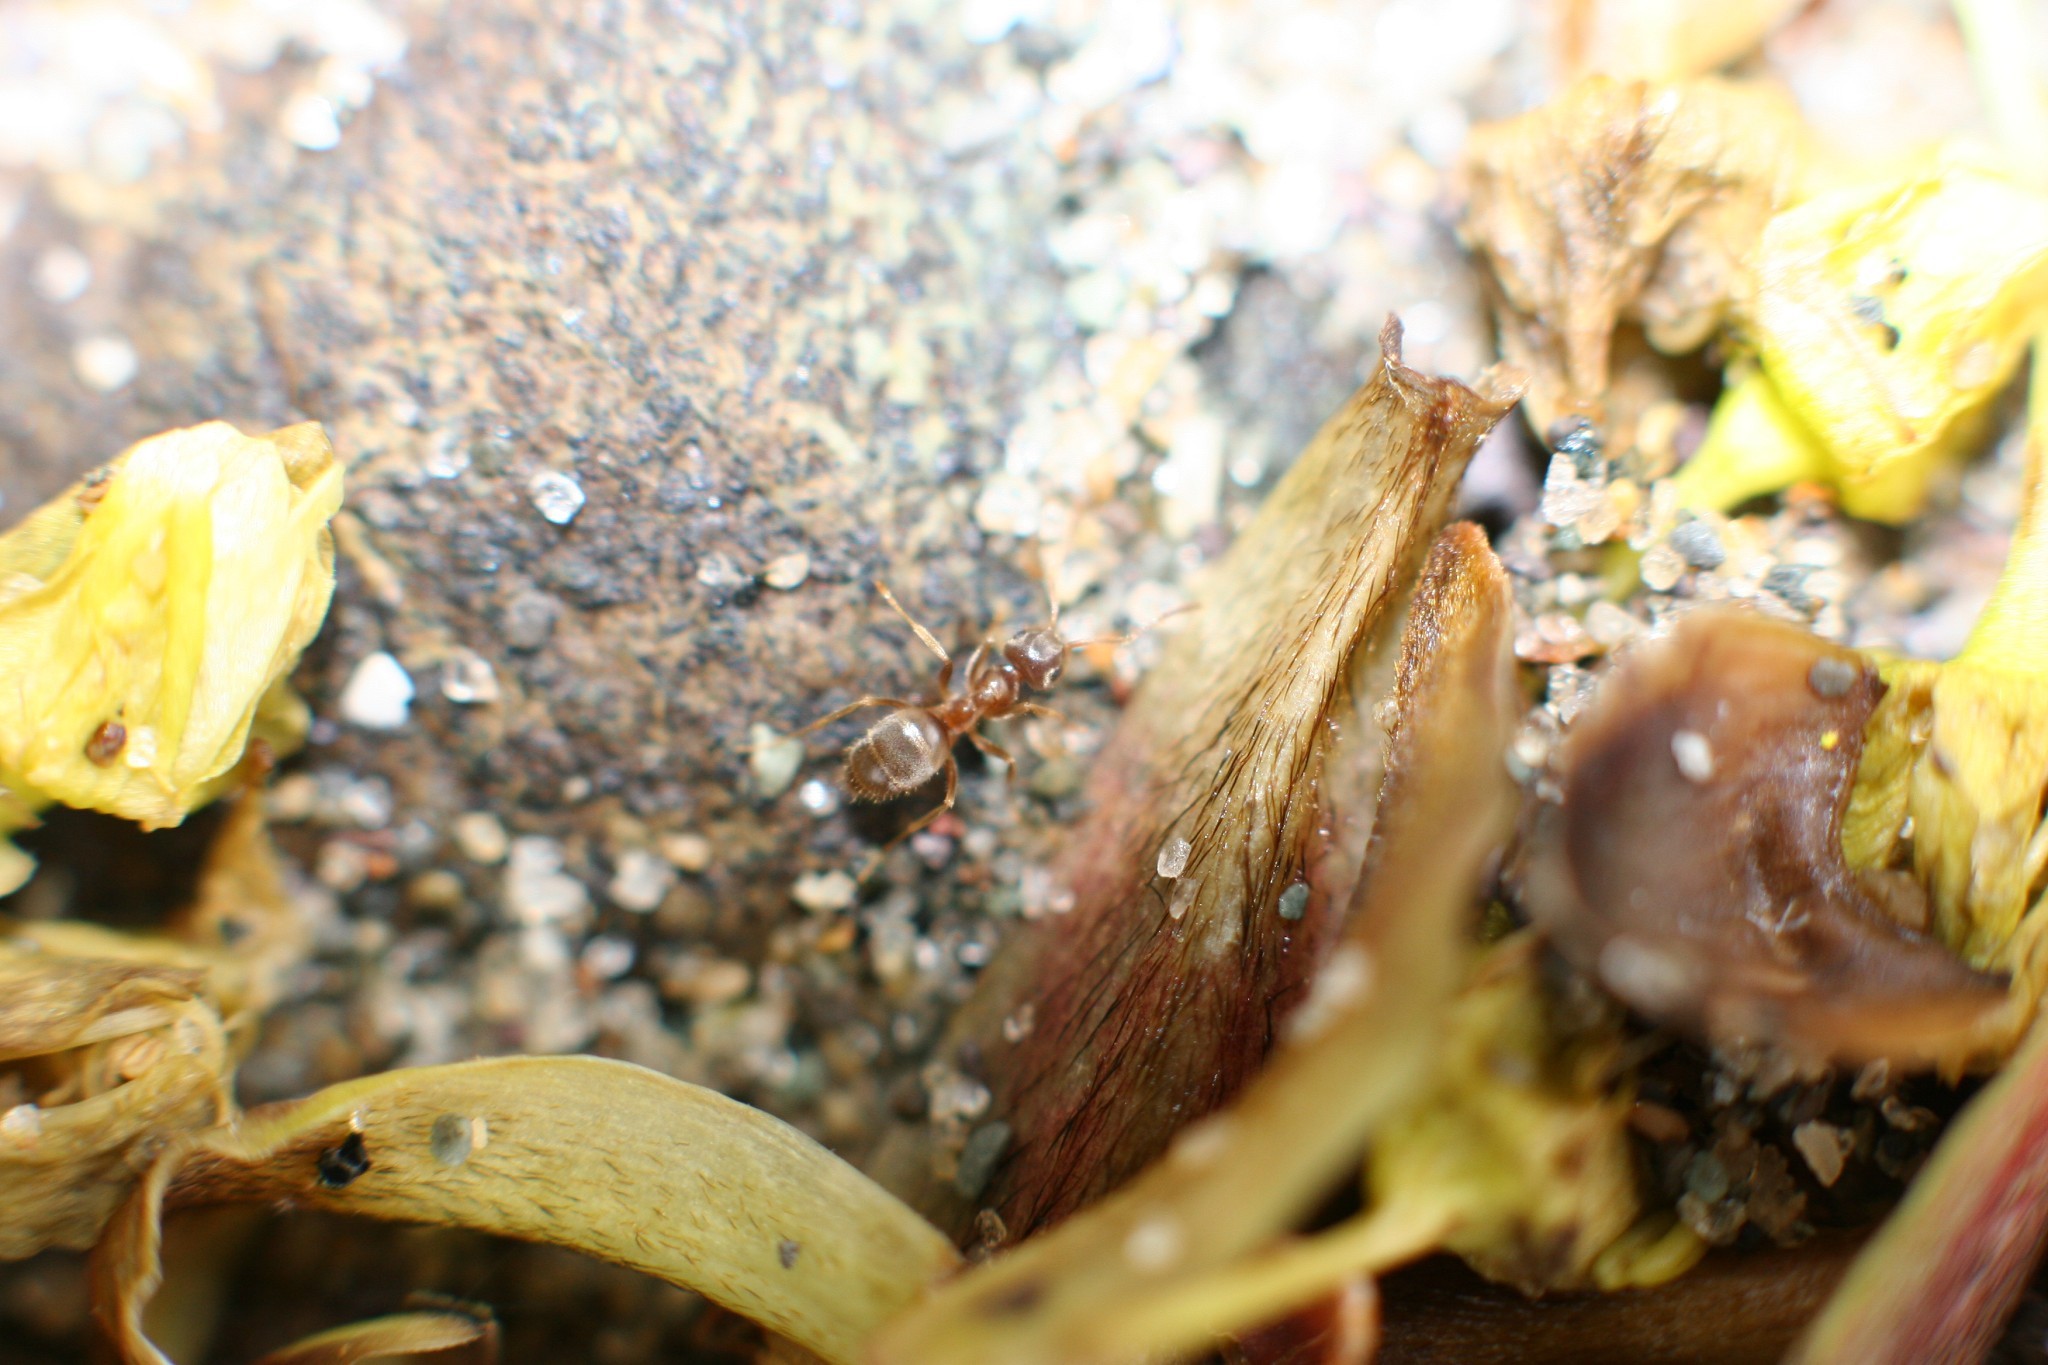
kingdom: Animalia
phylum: Arthropoda
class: Insecta
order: Hymenoptera
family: Formicidae
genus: Lasius
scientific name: Lasius neoniger
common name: Turfgrass ant
